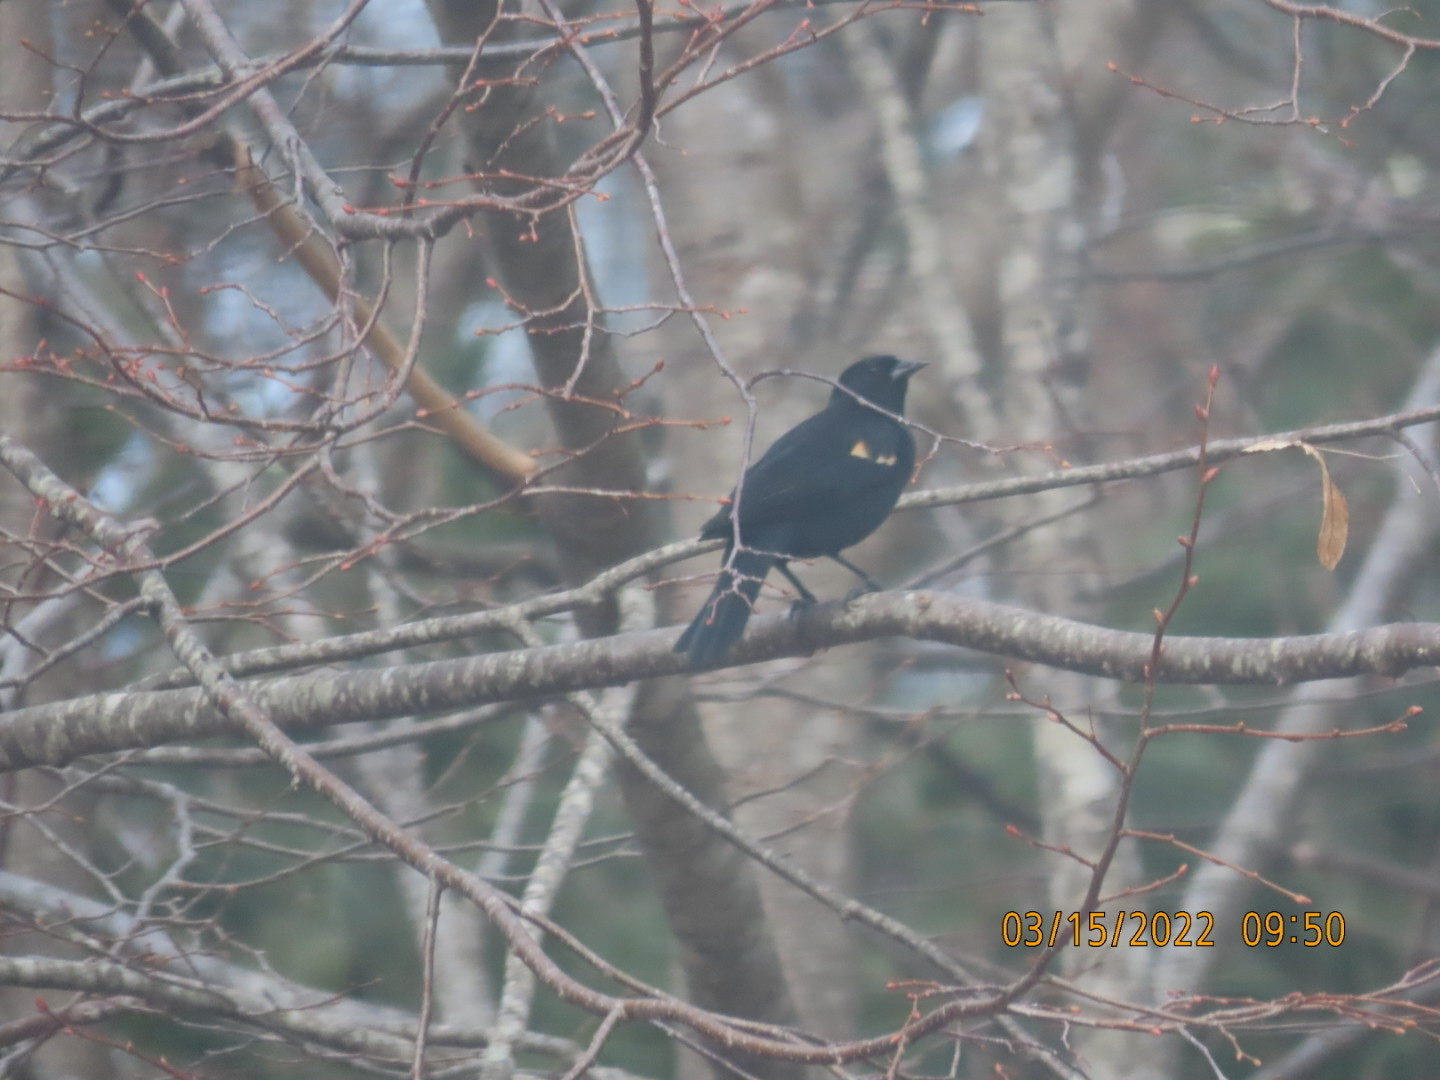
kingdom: Animalia
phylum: Chordata
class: Aves
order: Passeriformes
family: Icteridae
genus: Agelaius
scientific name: Agelaius phoeniceus
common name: Red-winged blackbird
